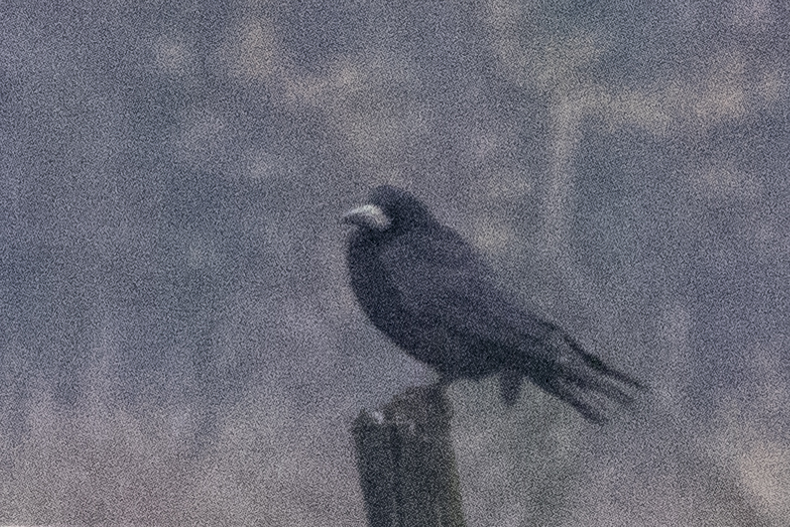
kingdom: Animalia
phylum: Chordata
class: Aves
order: Passeriformes
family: Corvidae
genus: Corvus
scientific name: Corvus frugilegus
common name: Rook
